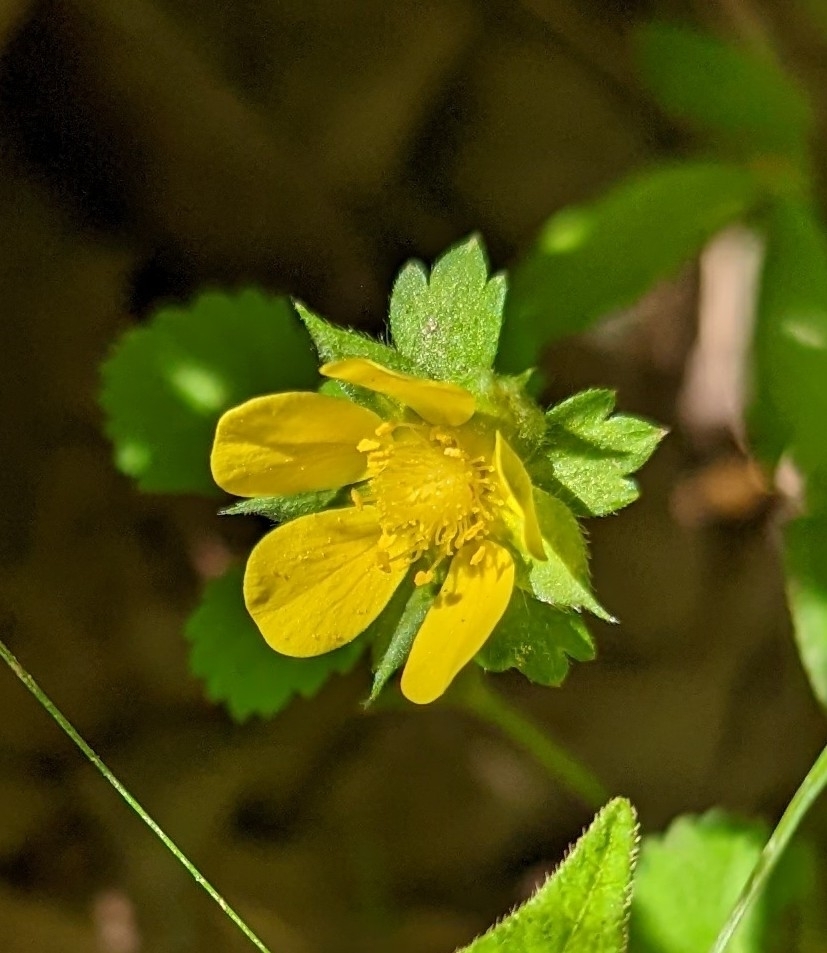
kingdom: Plantae
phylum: Tracheophyta
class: Magnoliopsida
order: Rosales
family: Rosaceae
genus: Potentilla
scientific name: Potentilla indica
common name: Yellow-flowered strawberry
